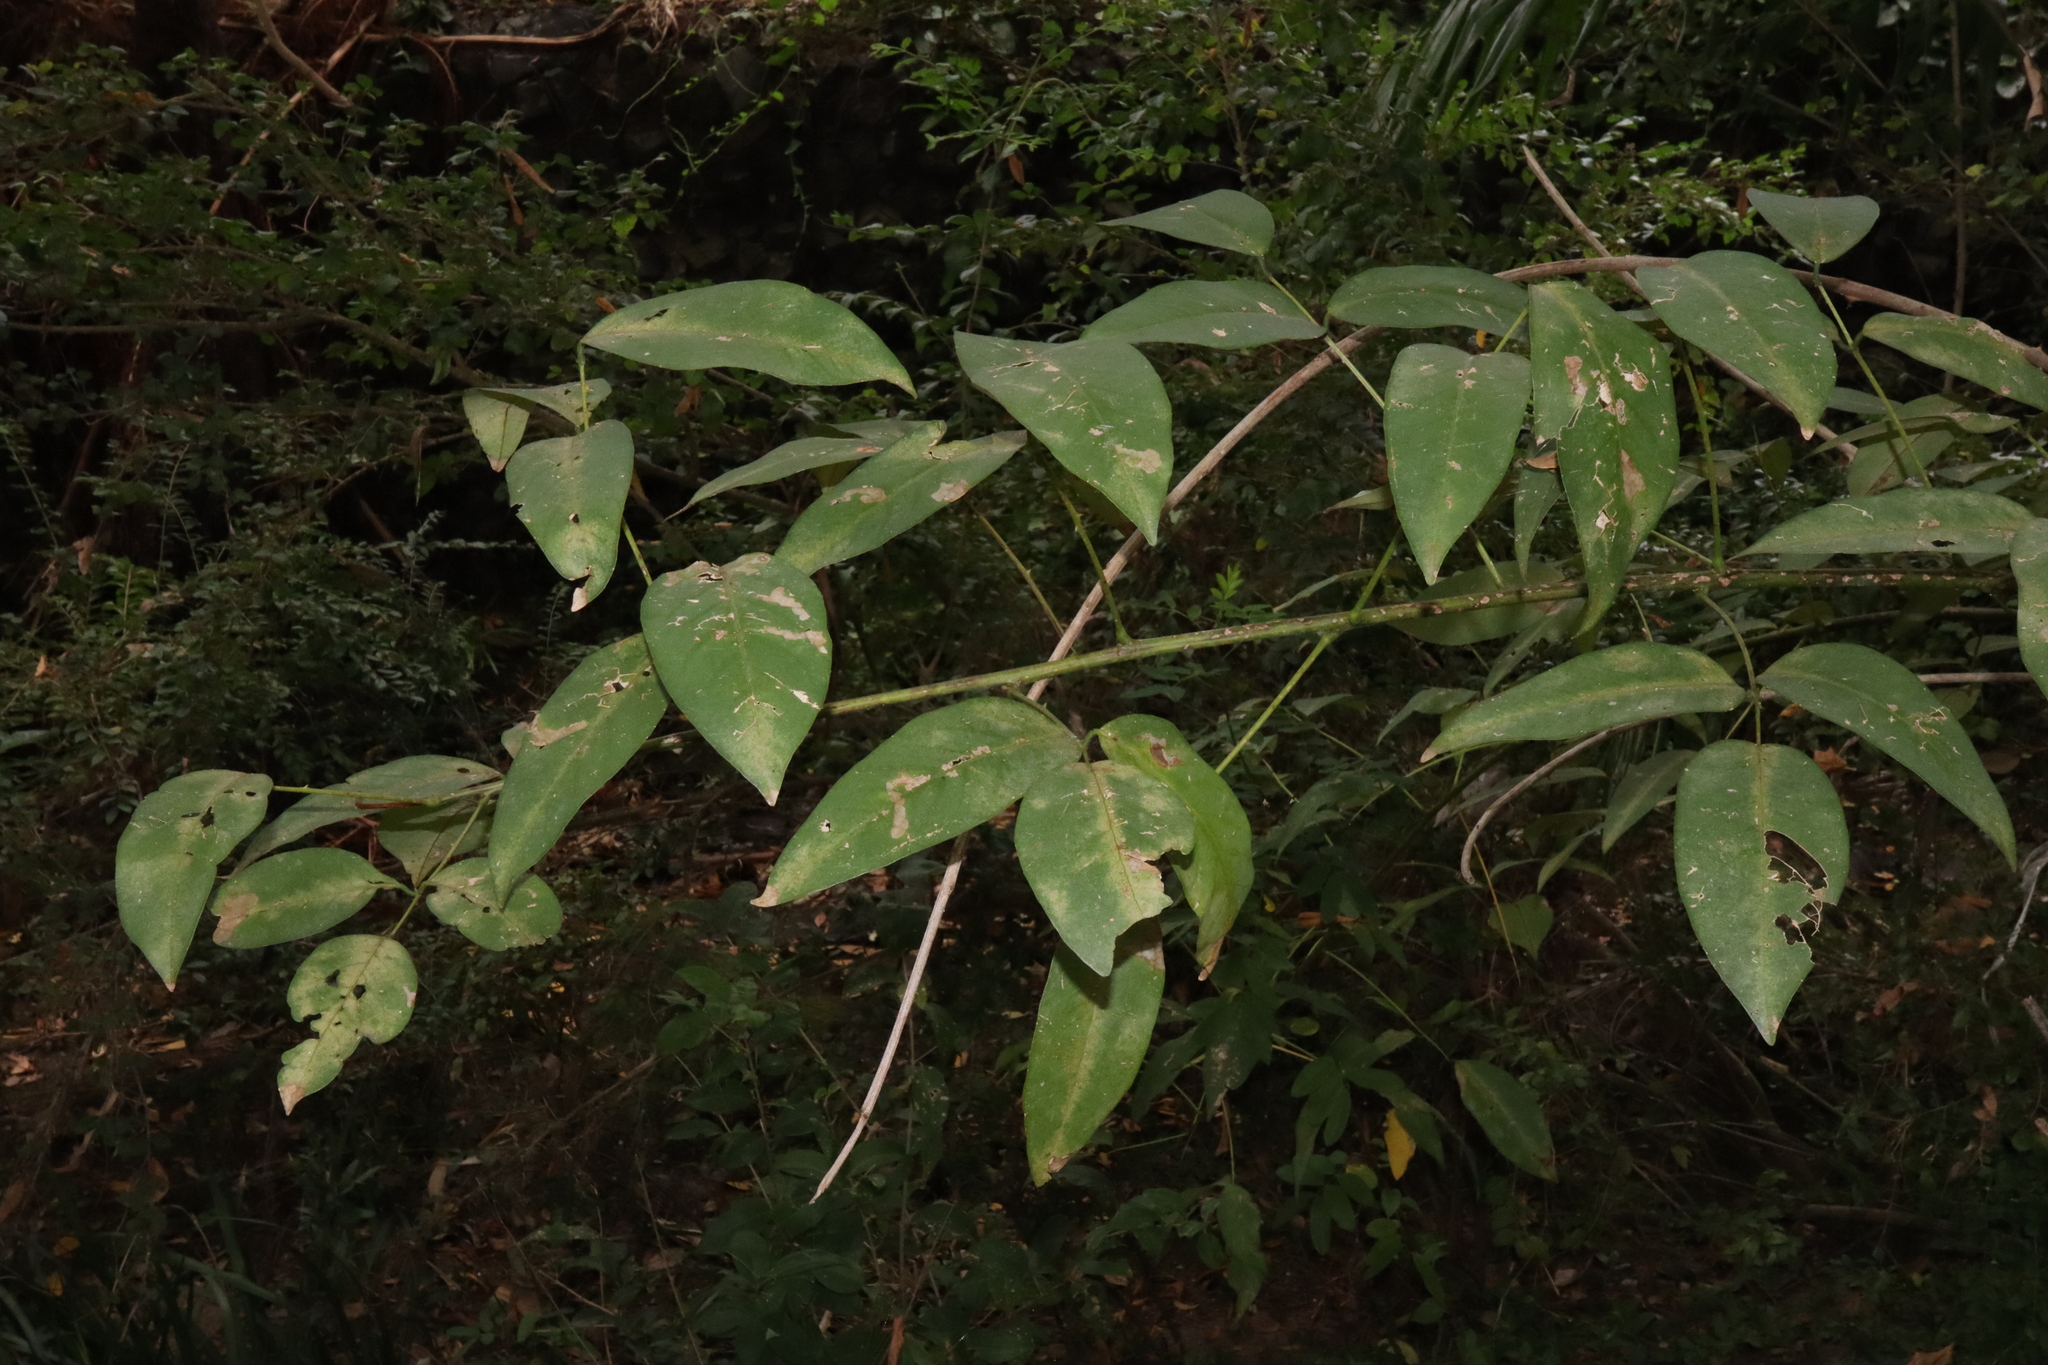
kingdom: Plantae
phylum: Tracheophyta
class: Magnoliopsida
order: Fabales
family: Fabaceae
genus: Erythrina
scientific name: Erythrina crista-galli
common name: Cockspur coral tree
